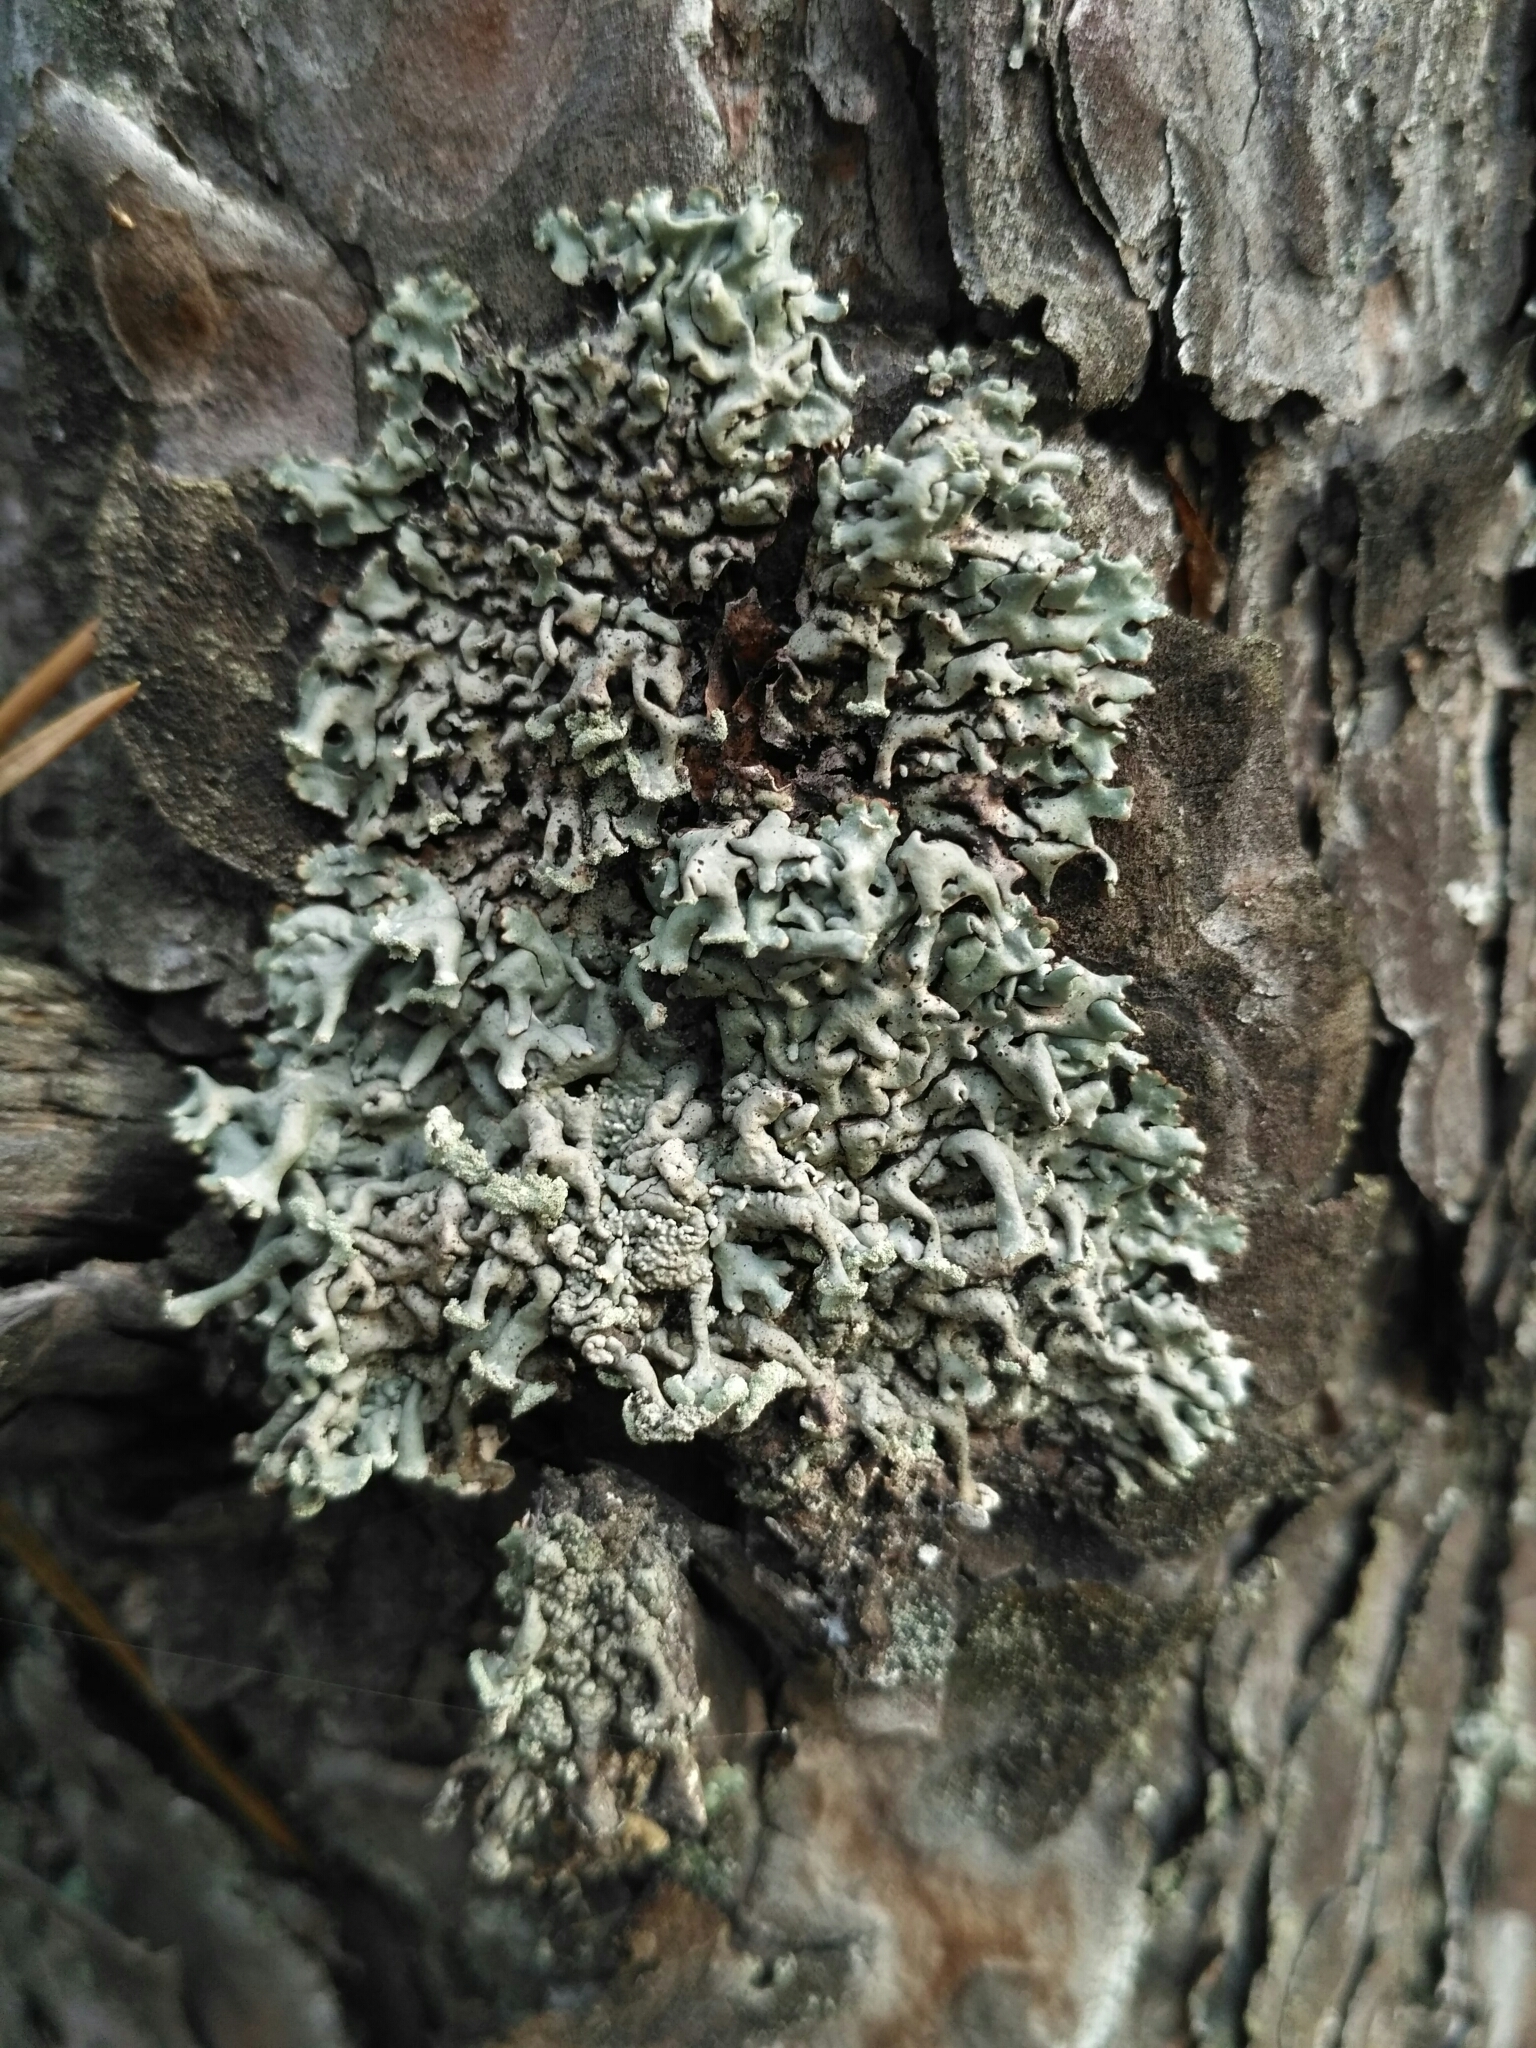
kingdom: Fungi
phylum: Ascomycota
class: Lecanoromycetes
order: Lecanorales
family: Parmeliaceae
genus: Hypogymnia
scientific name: Hypogymnia physodes
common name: Dark crottle
